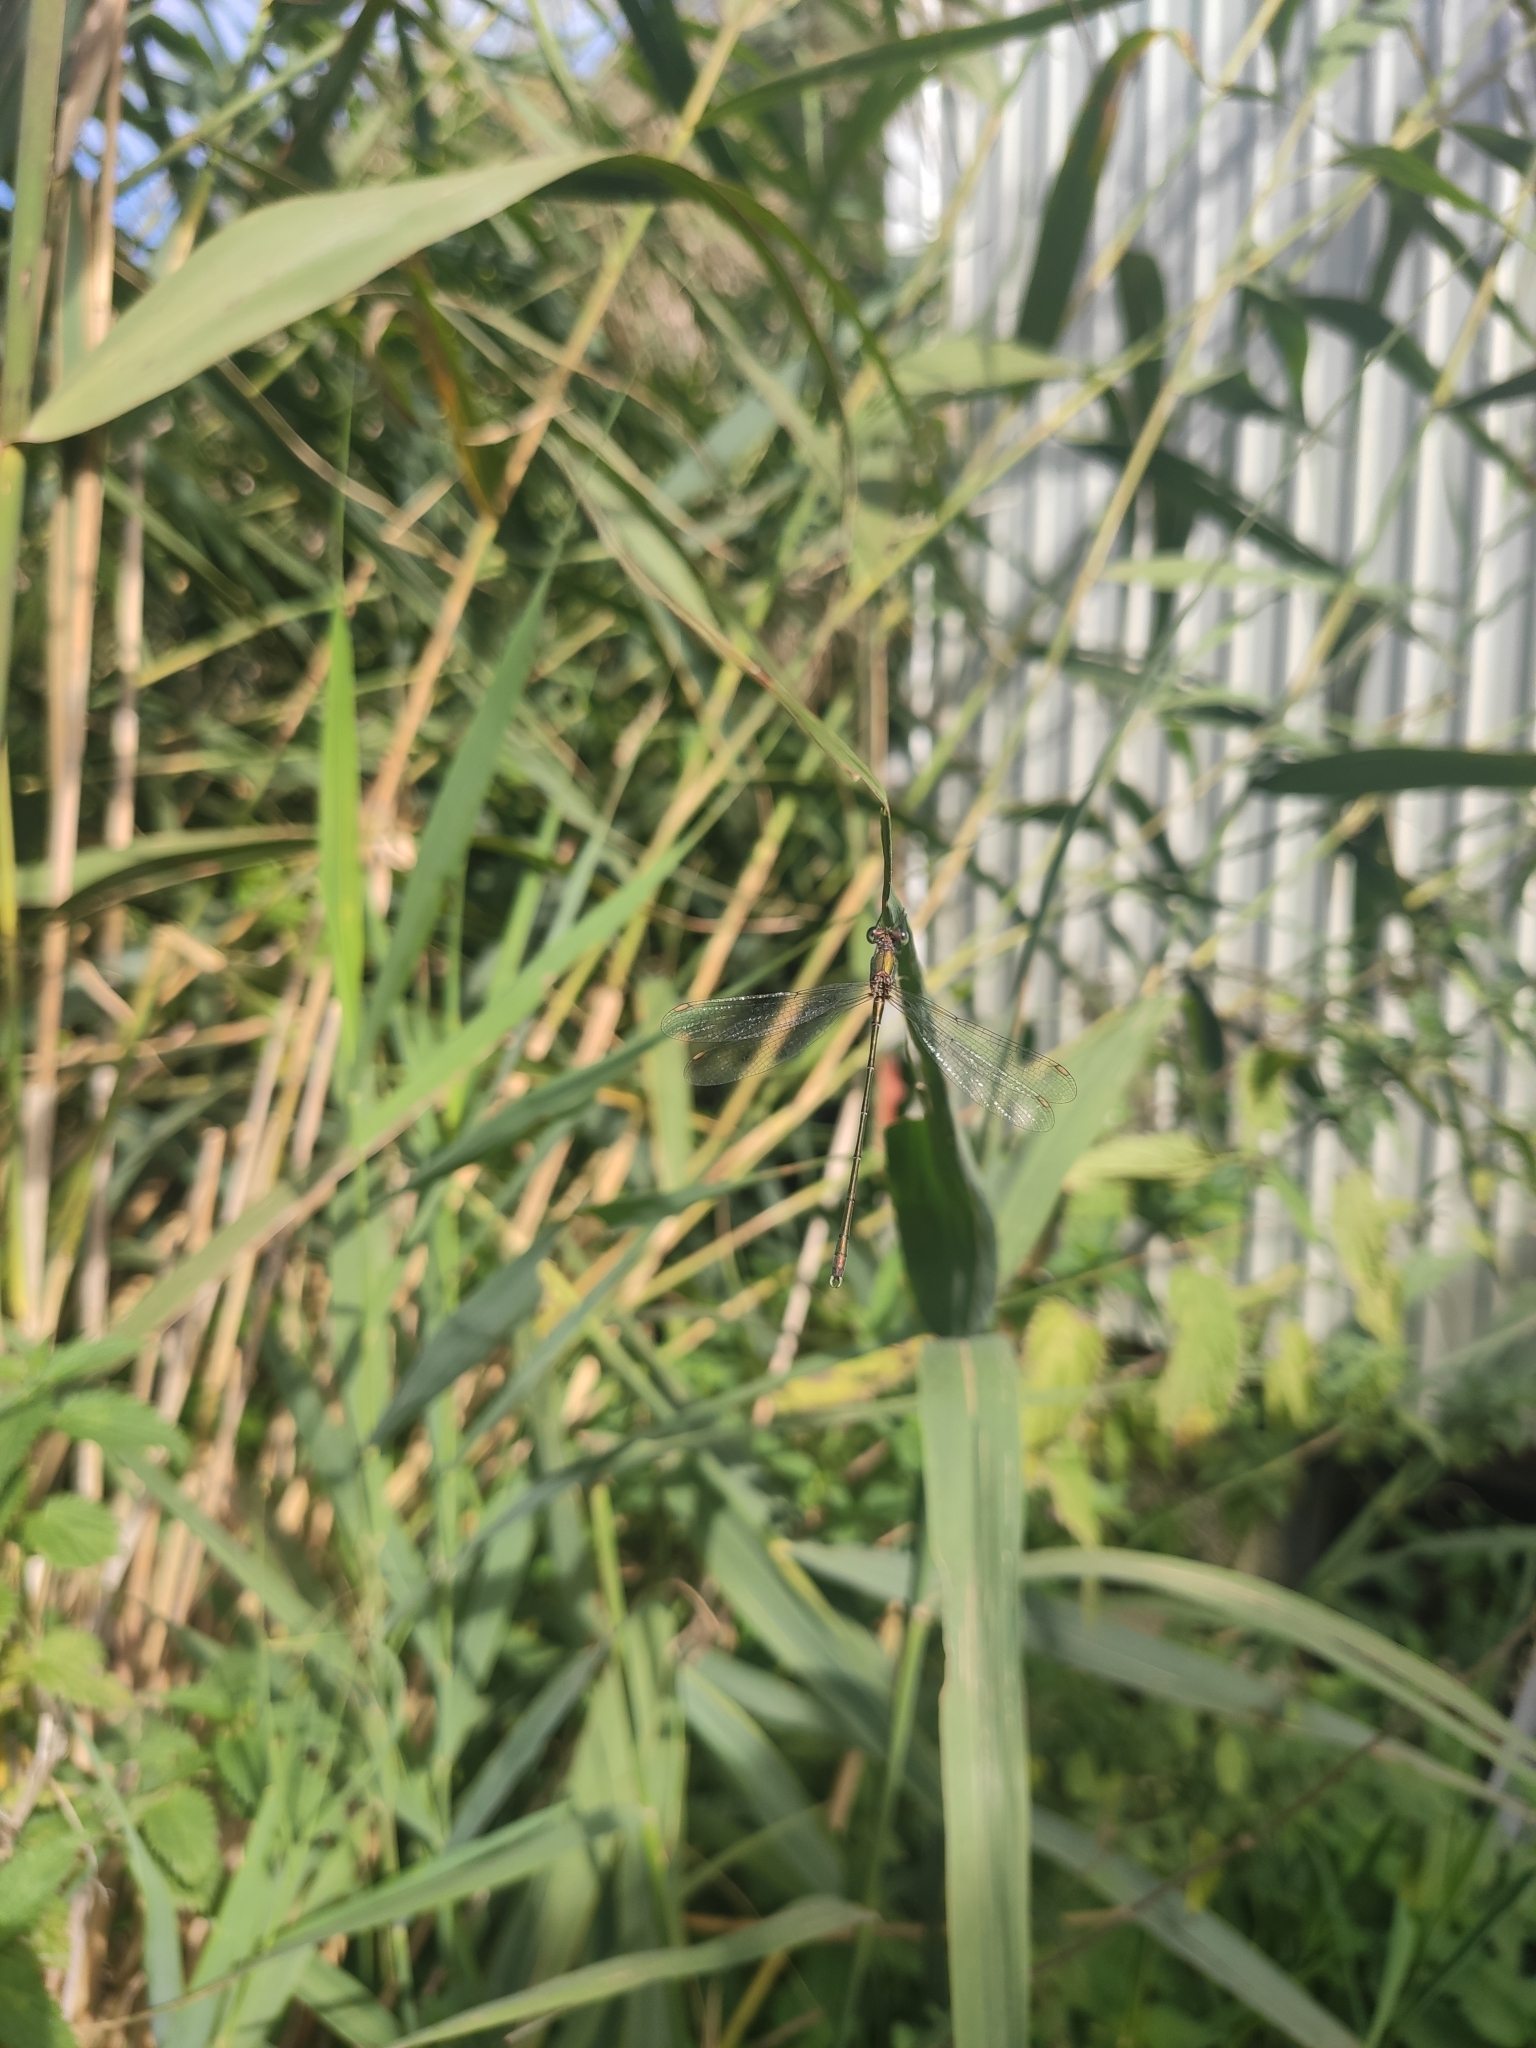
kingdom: Animalia
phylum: Arthropoda
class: Insecta
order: Odonata
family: Lestidae
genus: Chalcolestes
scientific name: Chalcolestes viridis
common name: Green emerald damselfly
